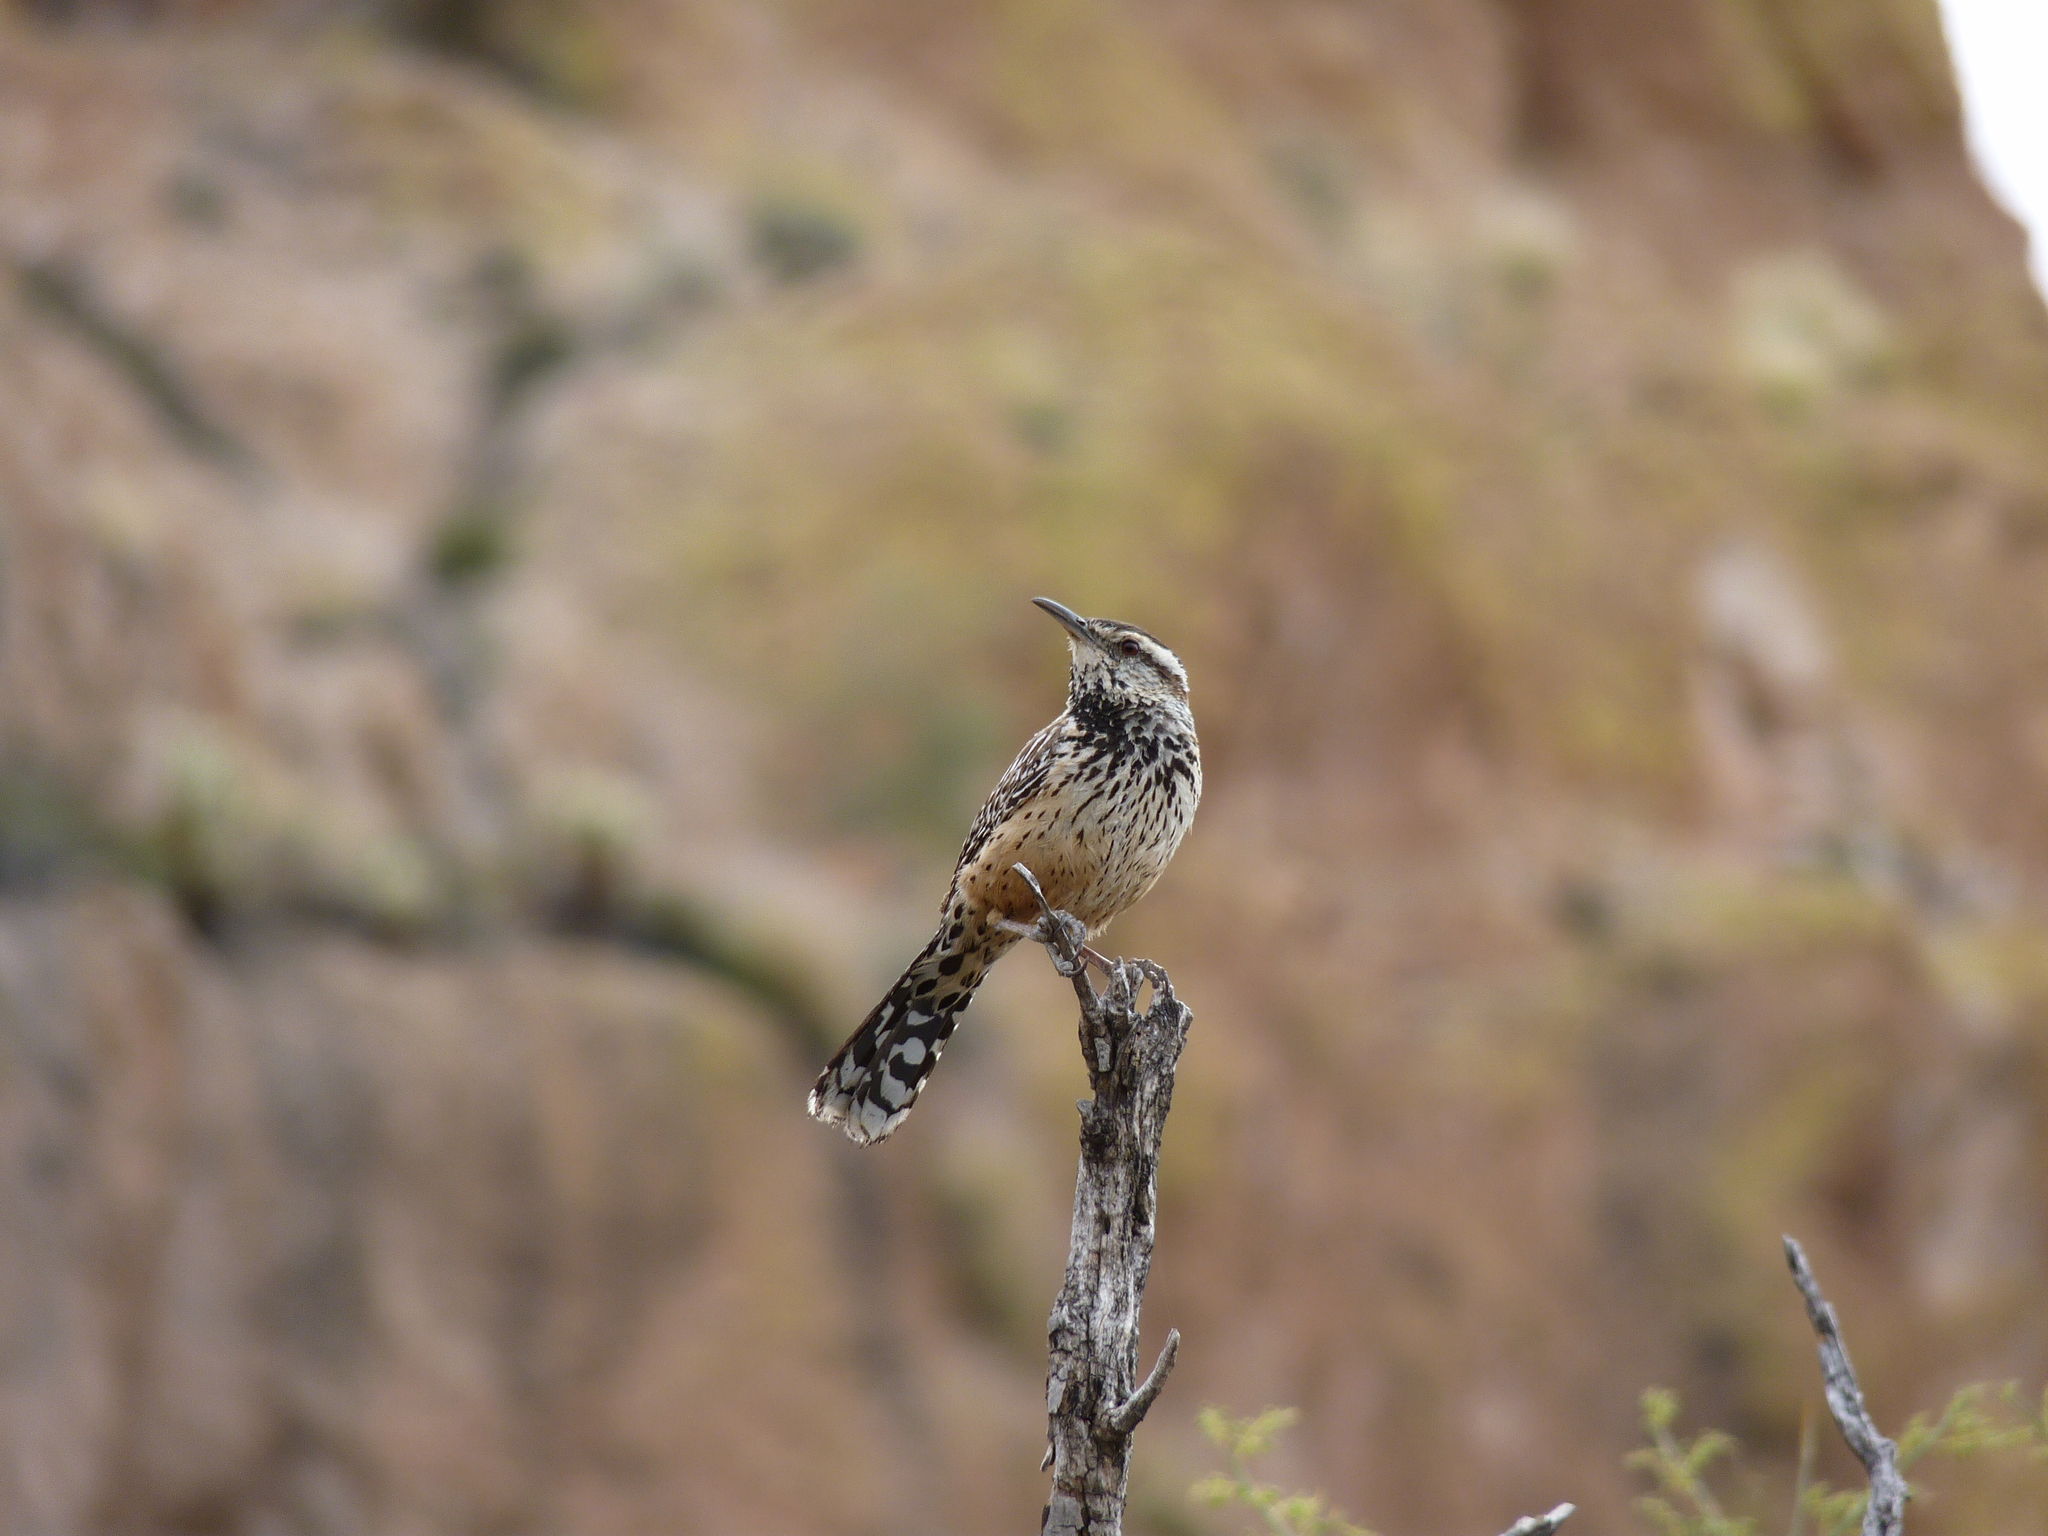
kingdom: Animalia
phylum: Chordata
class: Aves
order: Passeriformes
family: Troglodytidae
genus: Campylorhynchus
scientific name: Campylorhynchus brunneicapillus
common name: Cactus wren
